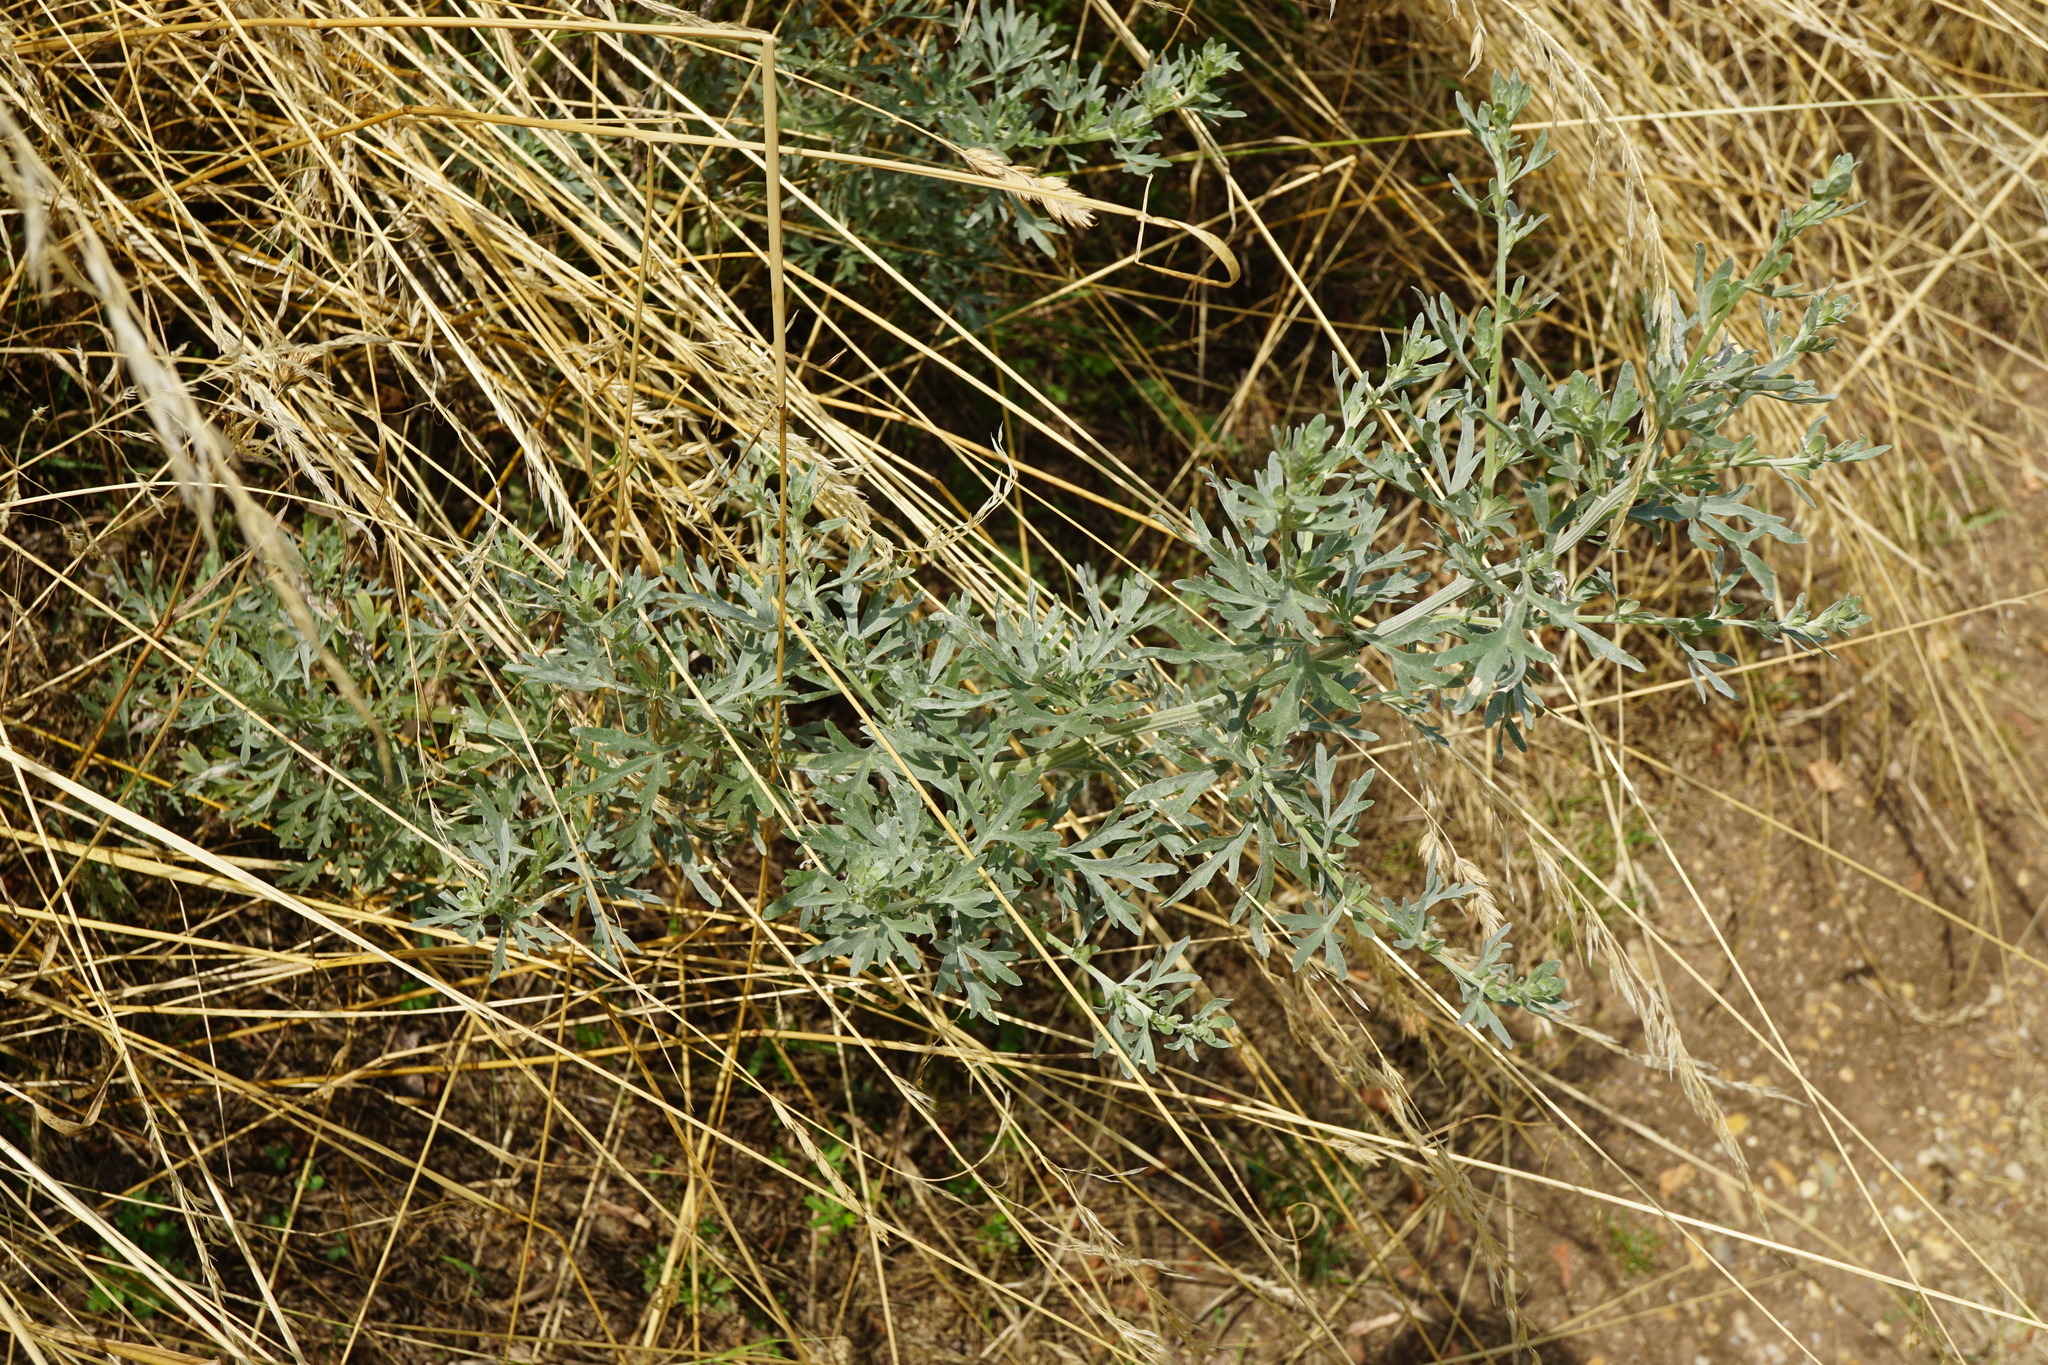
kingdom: Plantae
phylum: Tracheophyta
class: Magnoliopsida
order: Asterales
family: Asteraceae
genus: Artemisia
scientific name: Artemisia absinthium
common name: Wormwood
